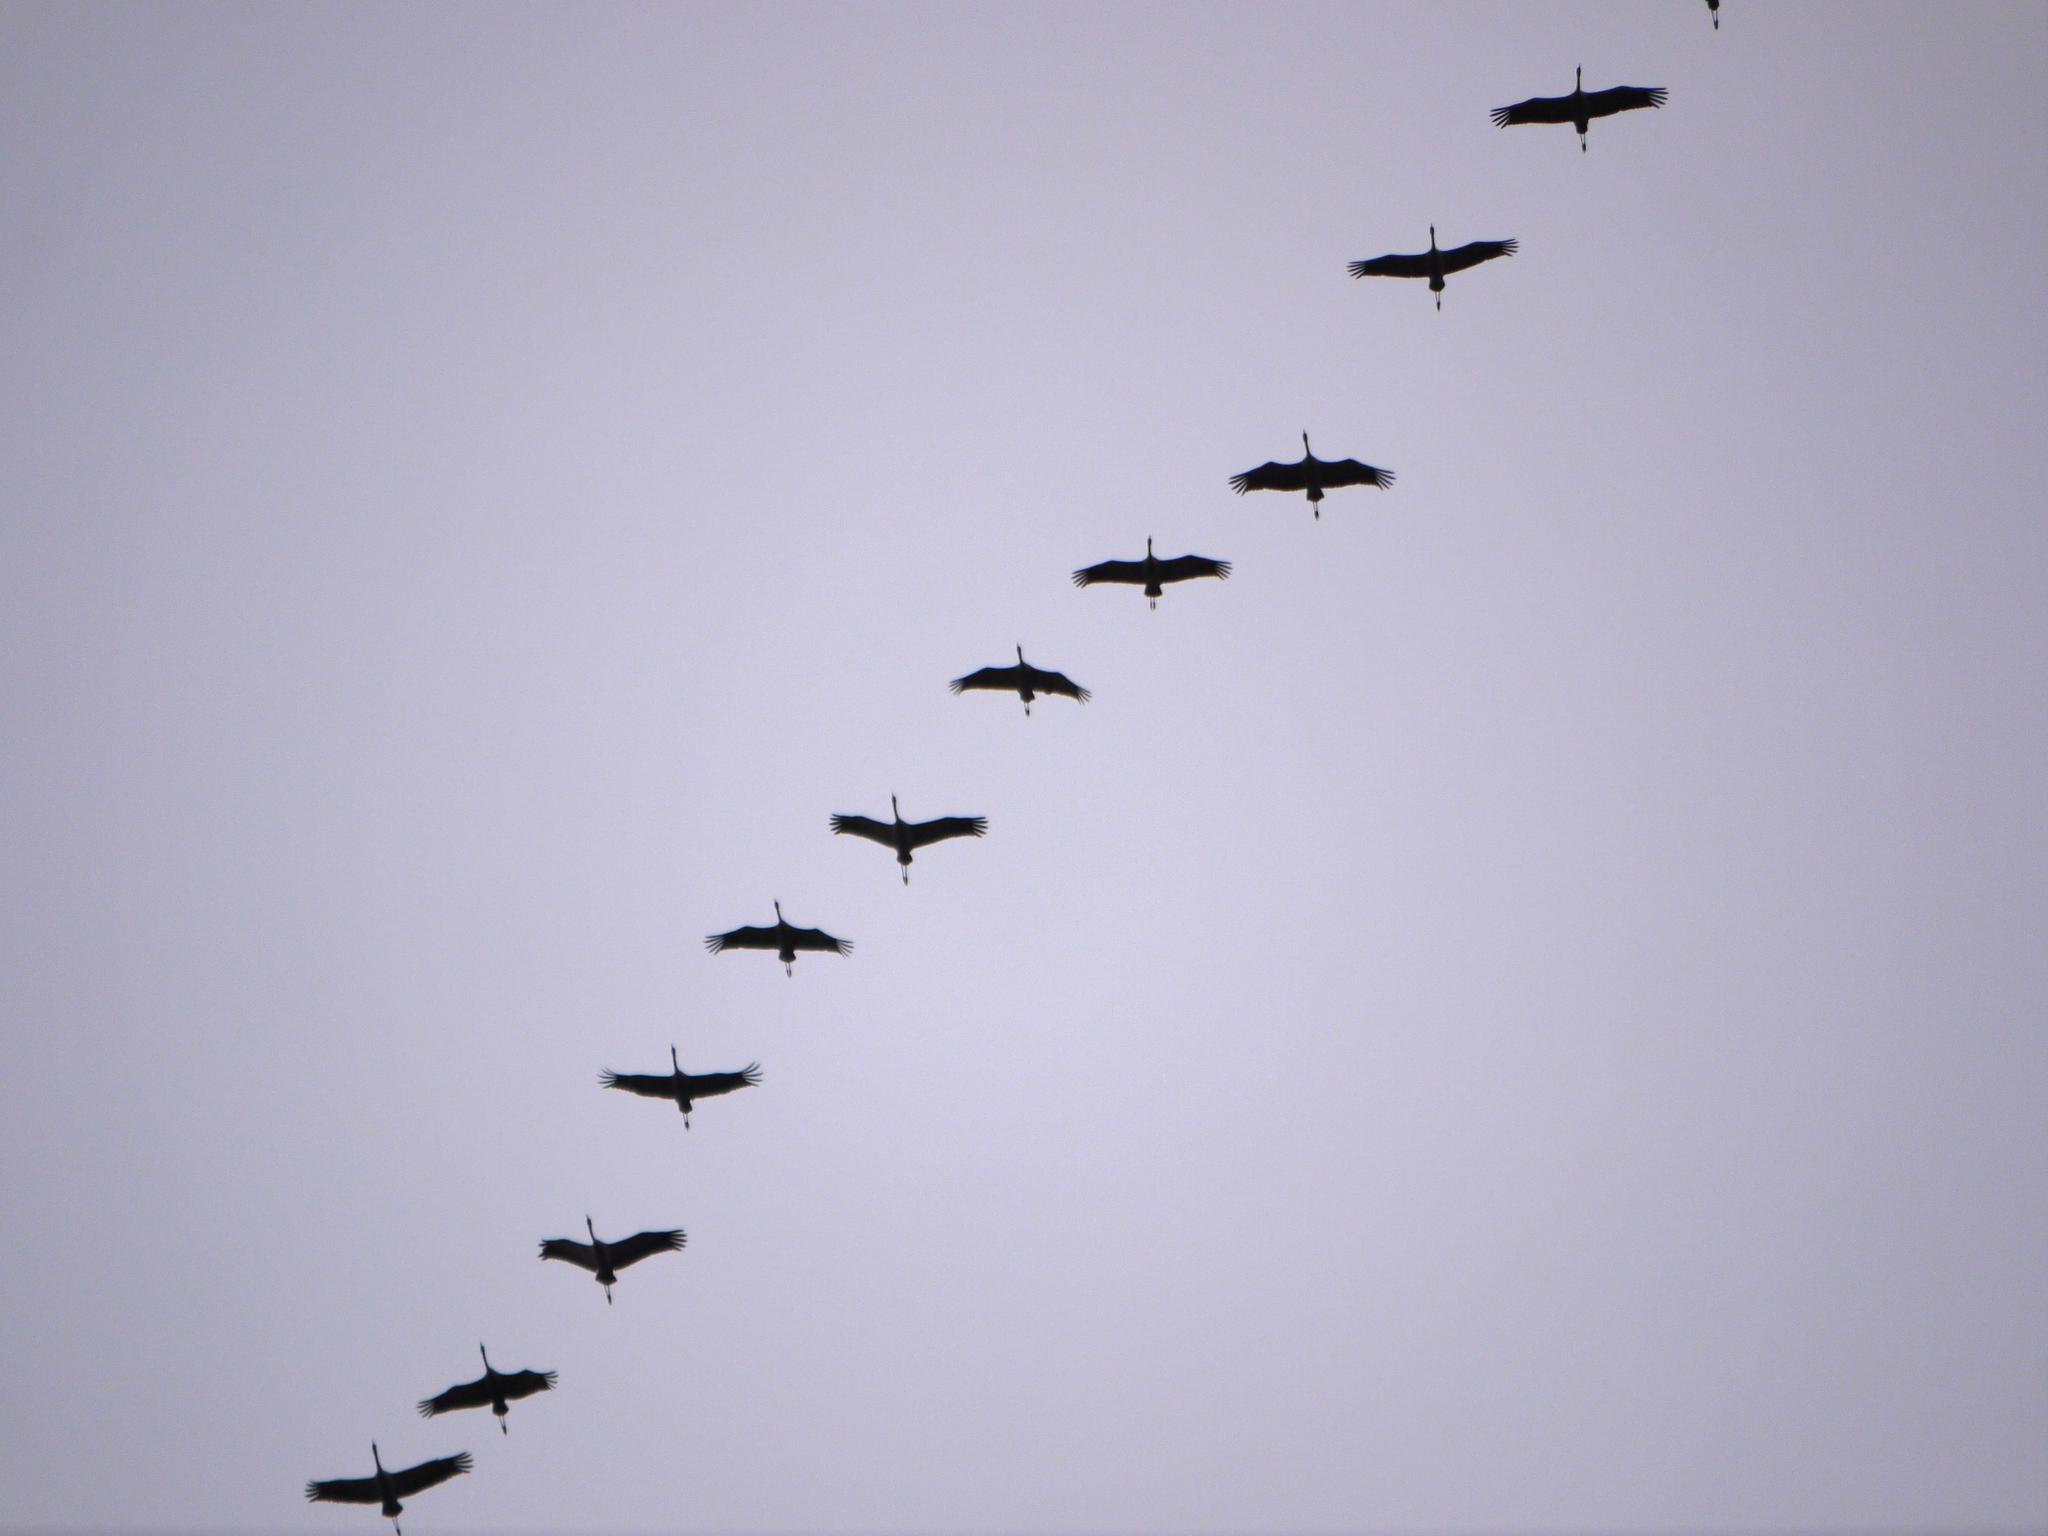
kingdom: Animalia
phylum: Chordata
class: Aves
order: Gruiformes
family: Gruidae
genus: Grus
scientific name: Grus grus
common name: Common crane
